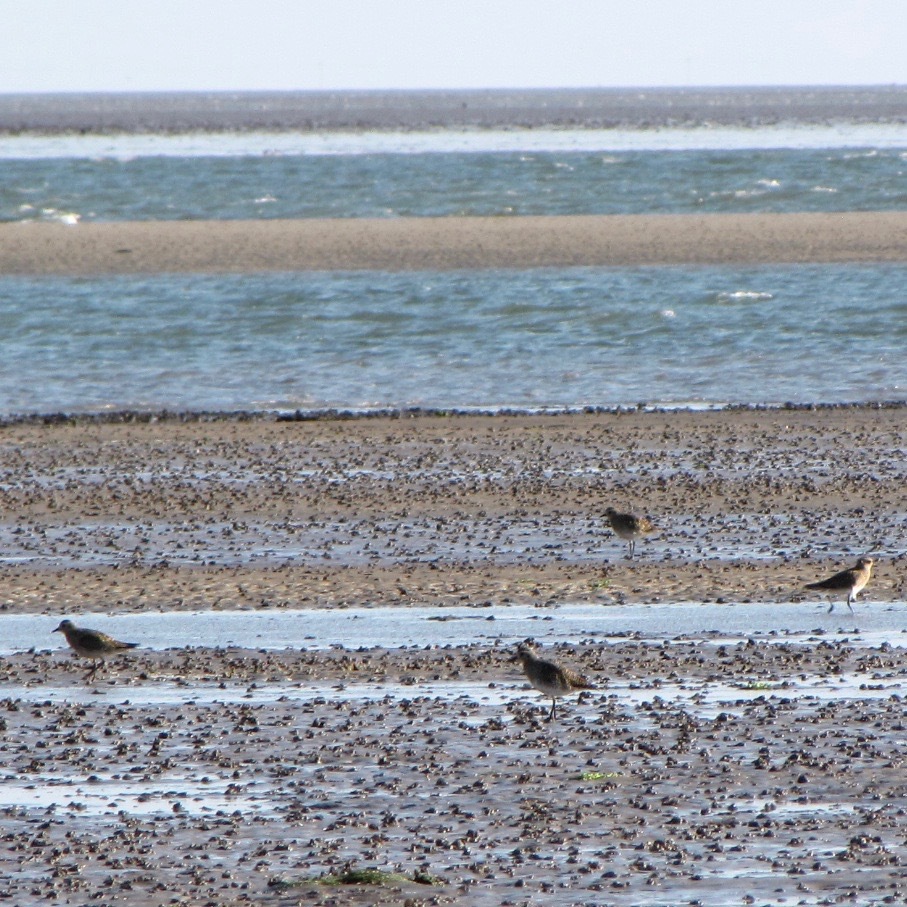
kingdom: Animalia
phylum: Chordata
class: Aves
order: Charadriiformes
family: Charadriidae
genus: Pluvialis
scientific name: Pluvialis apricaria
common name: European golden plover
